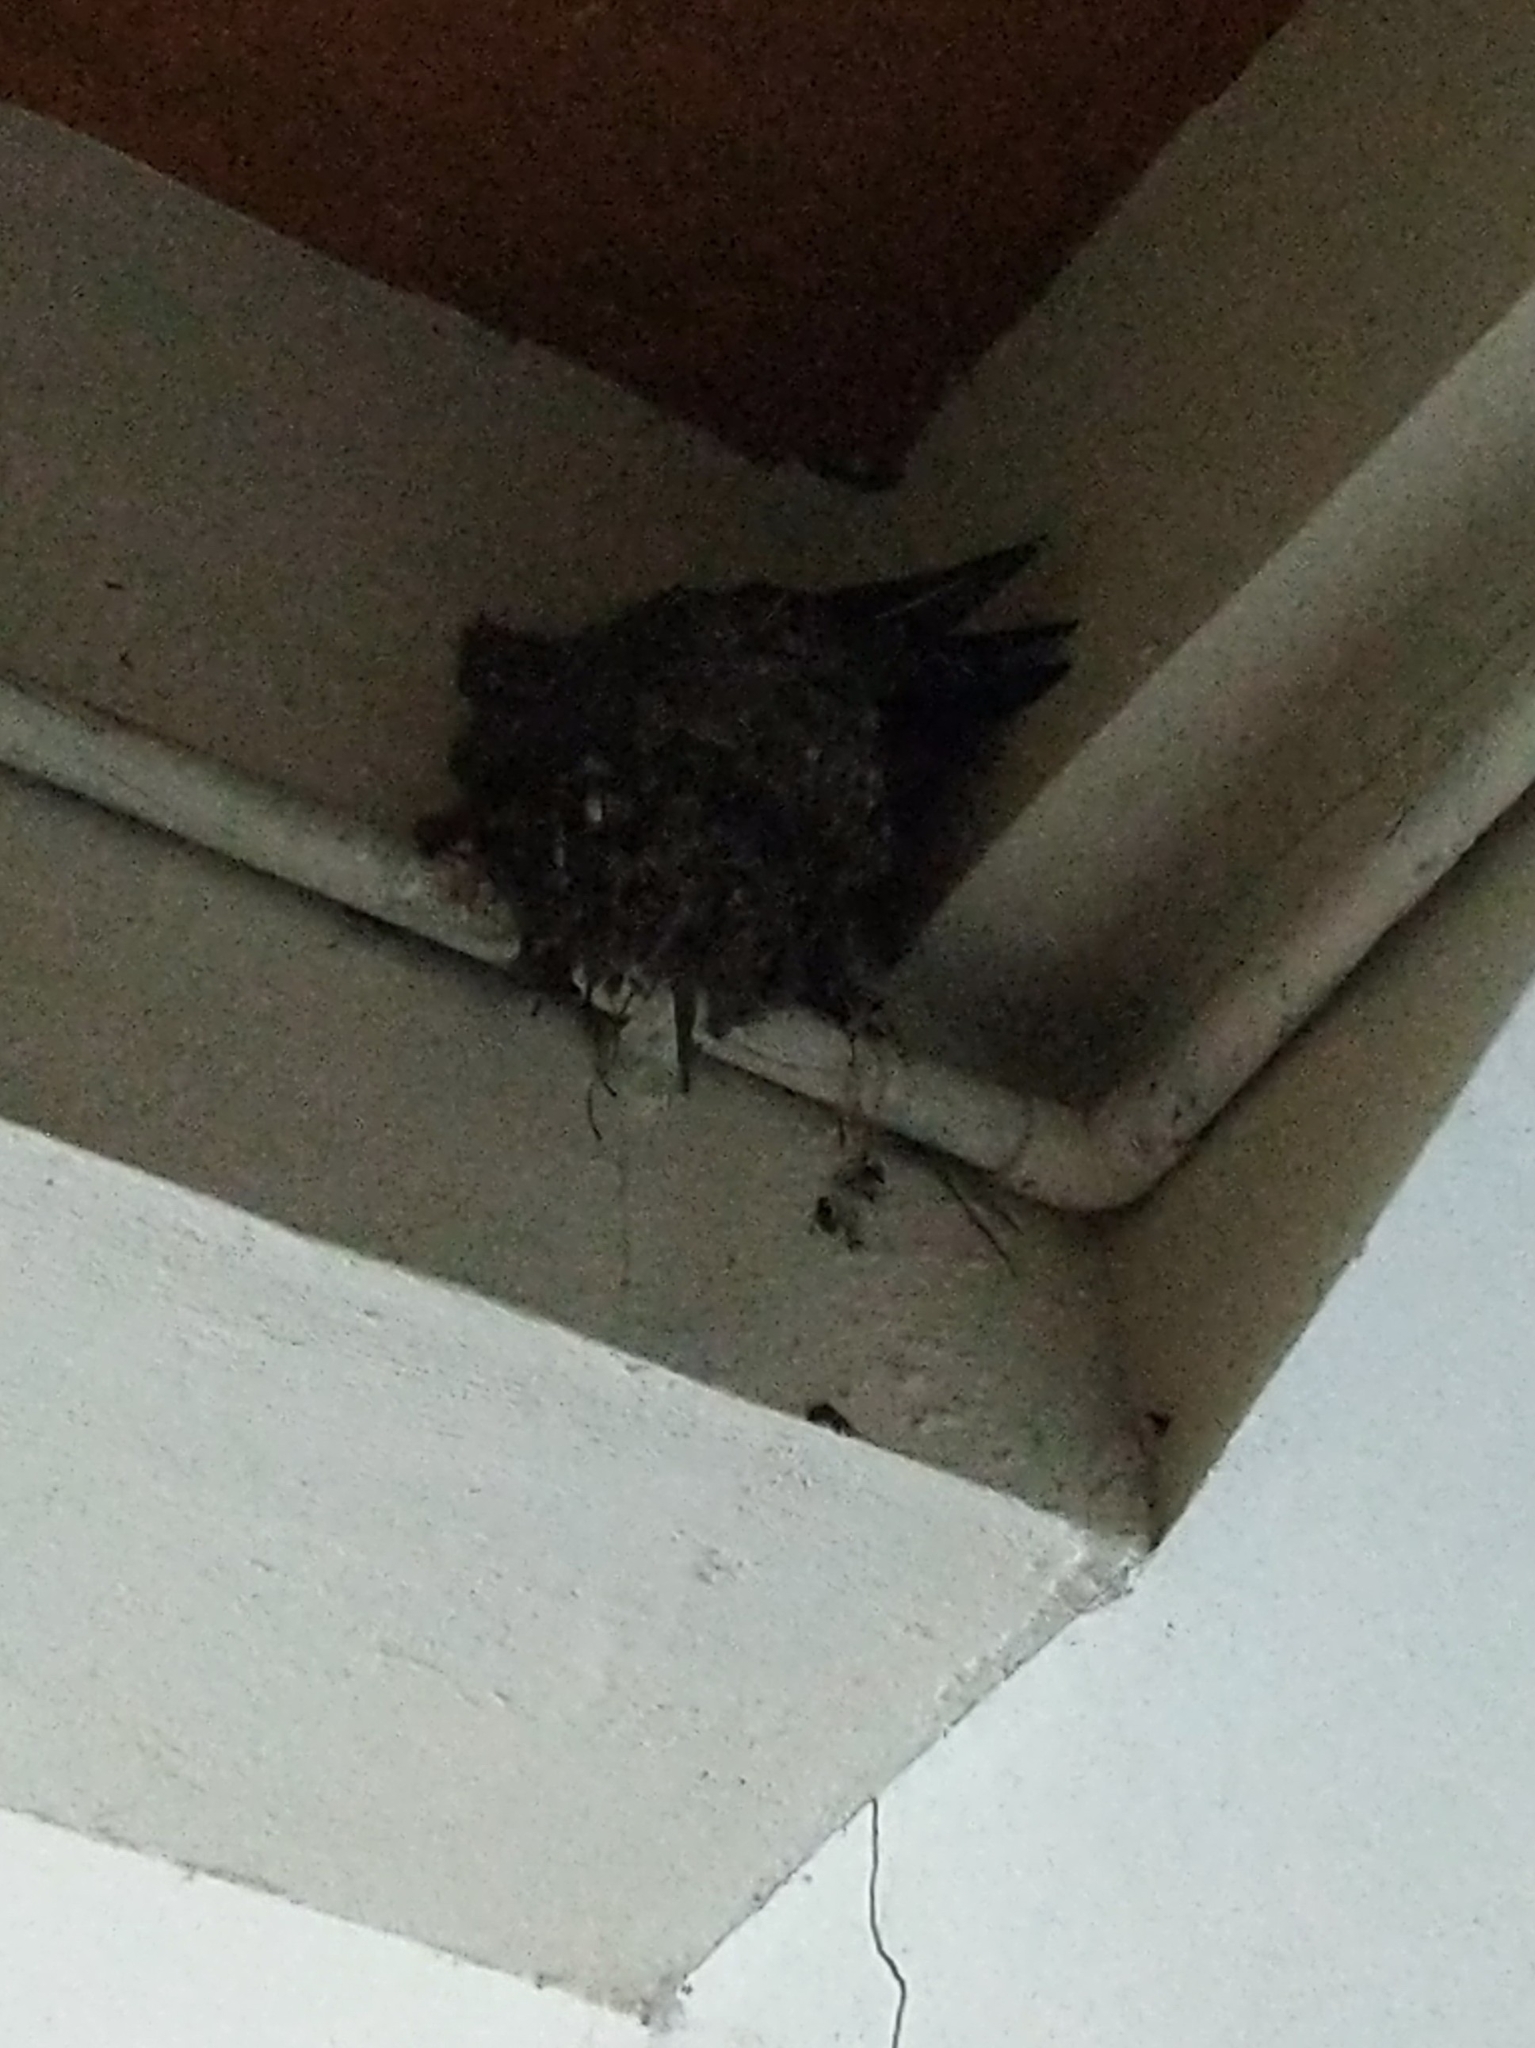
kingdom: Animalia
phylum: Chordata
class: Aves
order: Passeriformes
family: Hirundinidae
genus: Hirundo
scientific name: Hirundo domicola
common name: Hill swallow
